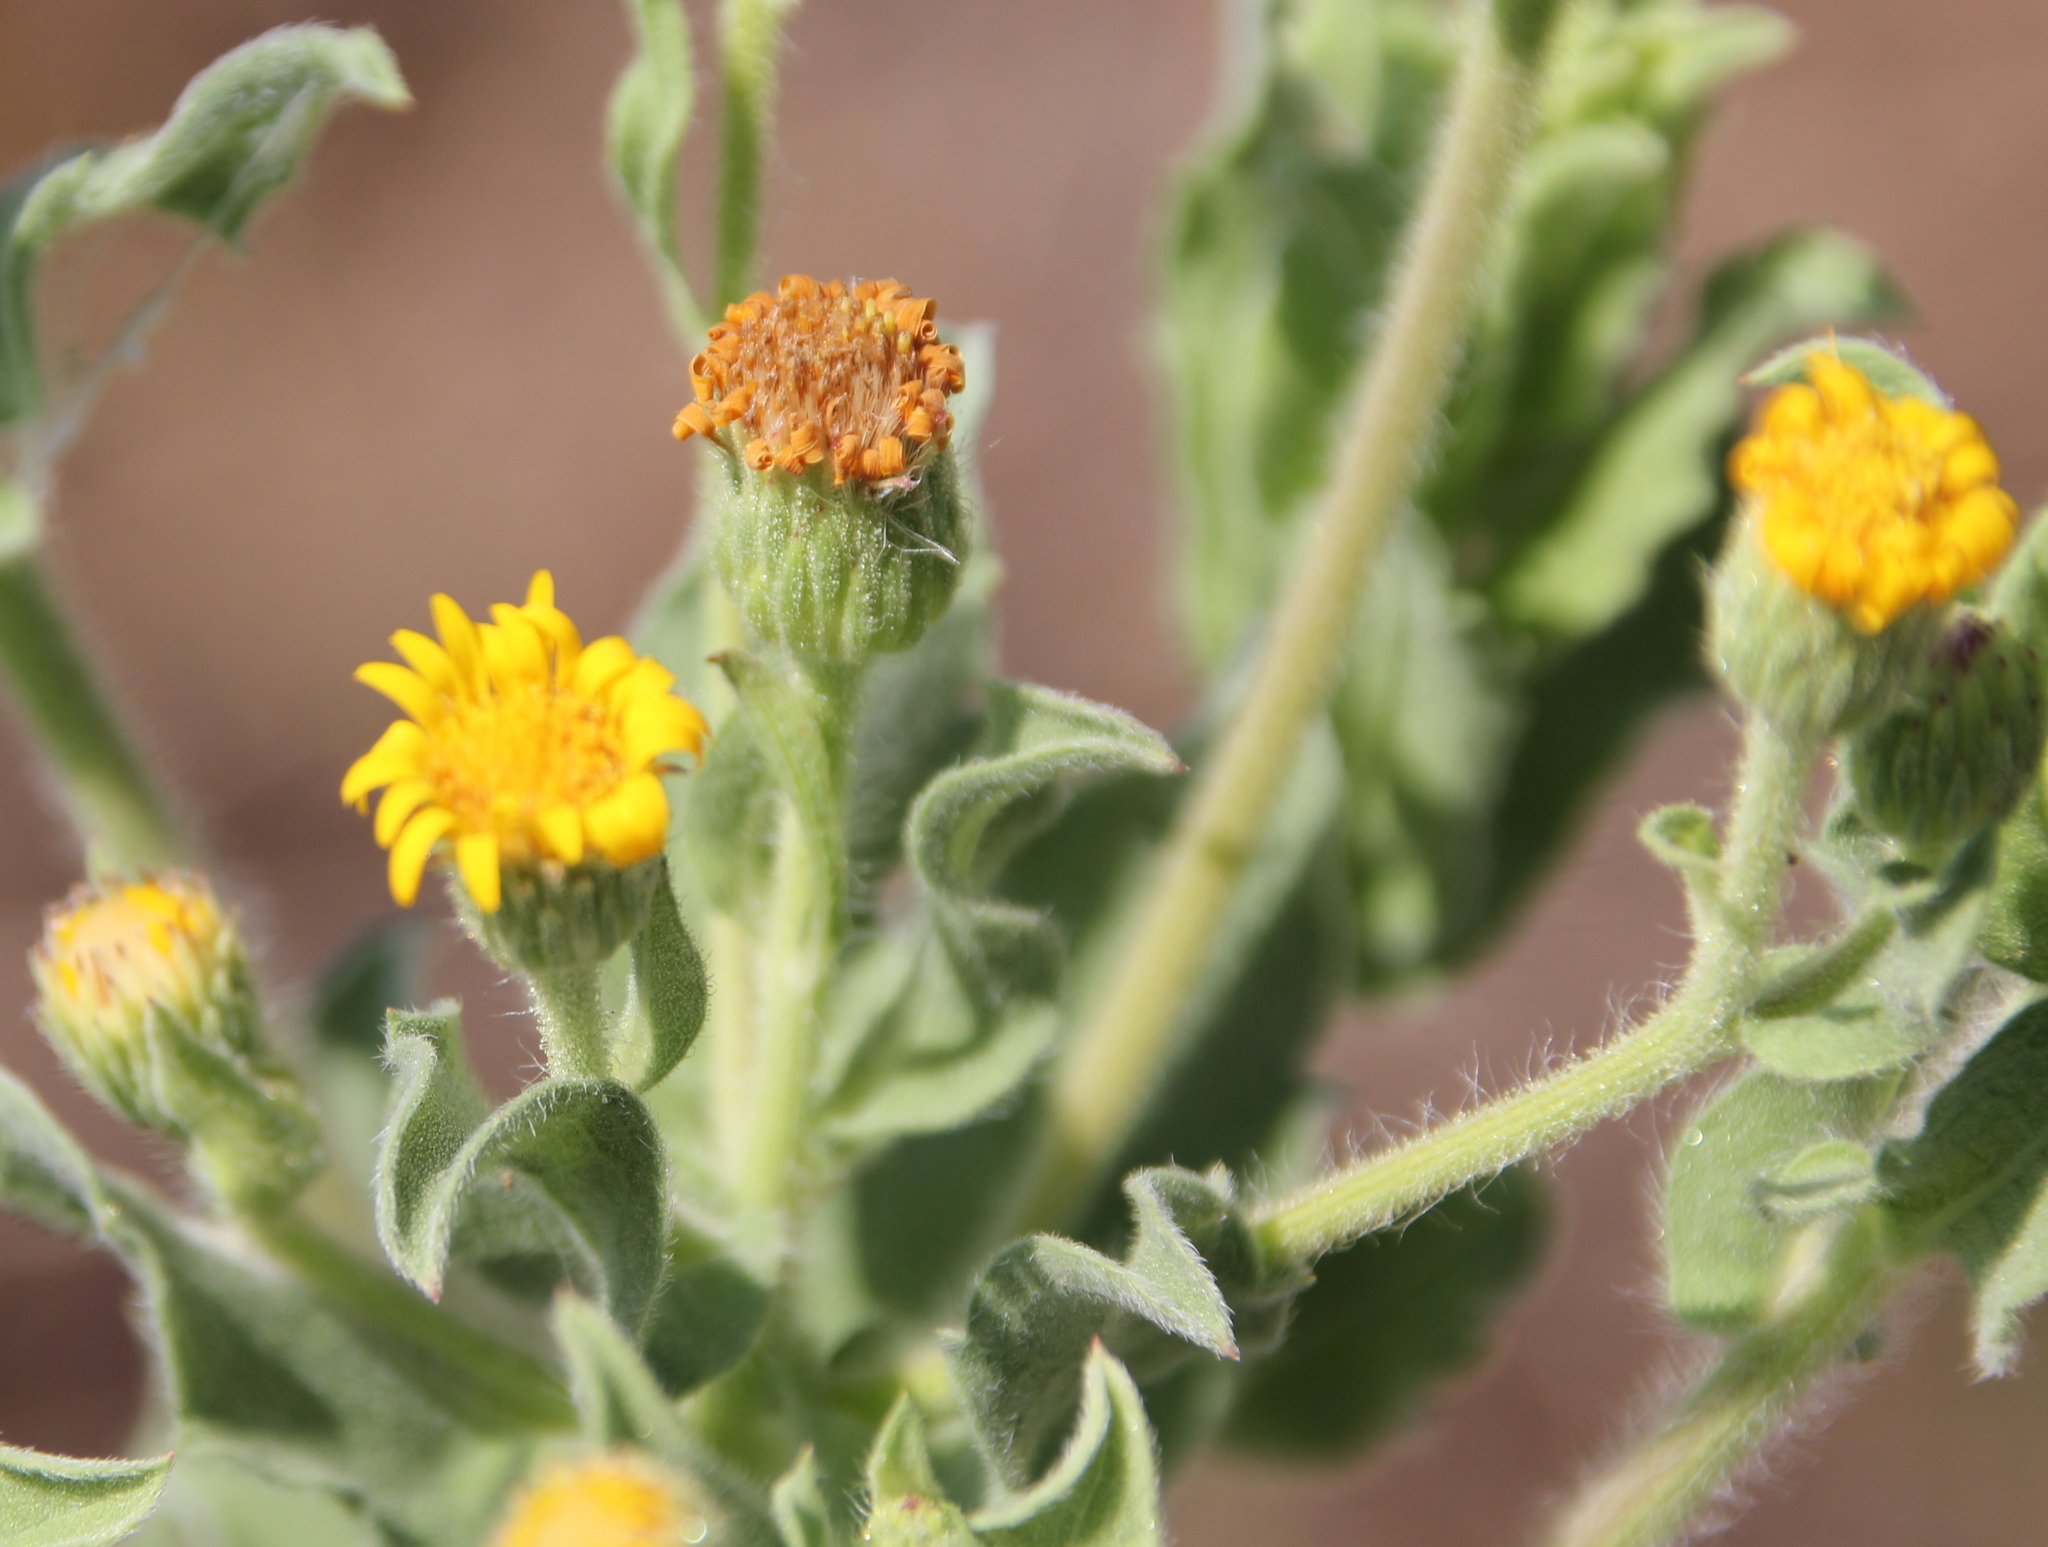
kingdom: Plantae
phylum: Tracheophyta
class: Magnoliopsida
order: Asterales
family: Asteraceae
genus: Heterotheca
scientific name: Heterotheca grandiflora
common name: Telegraphweed
